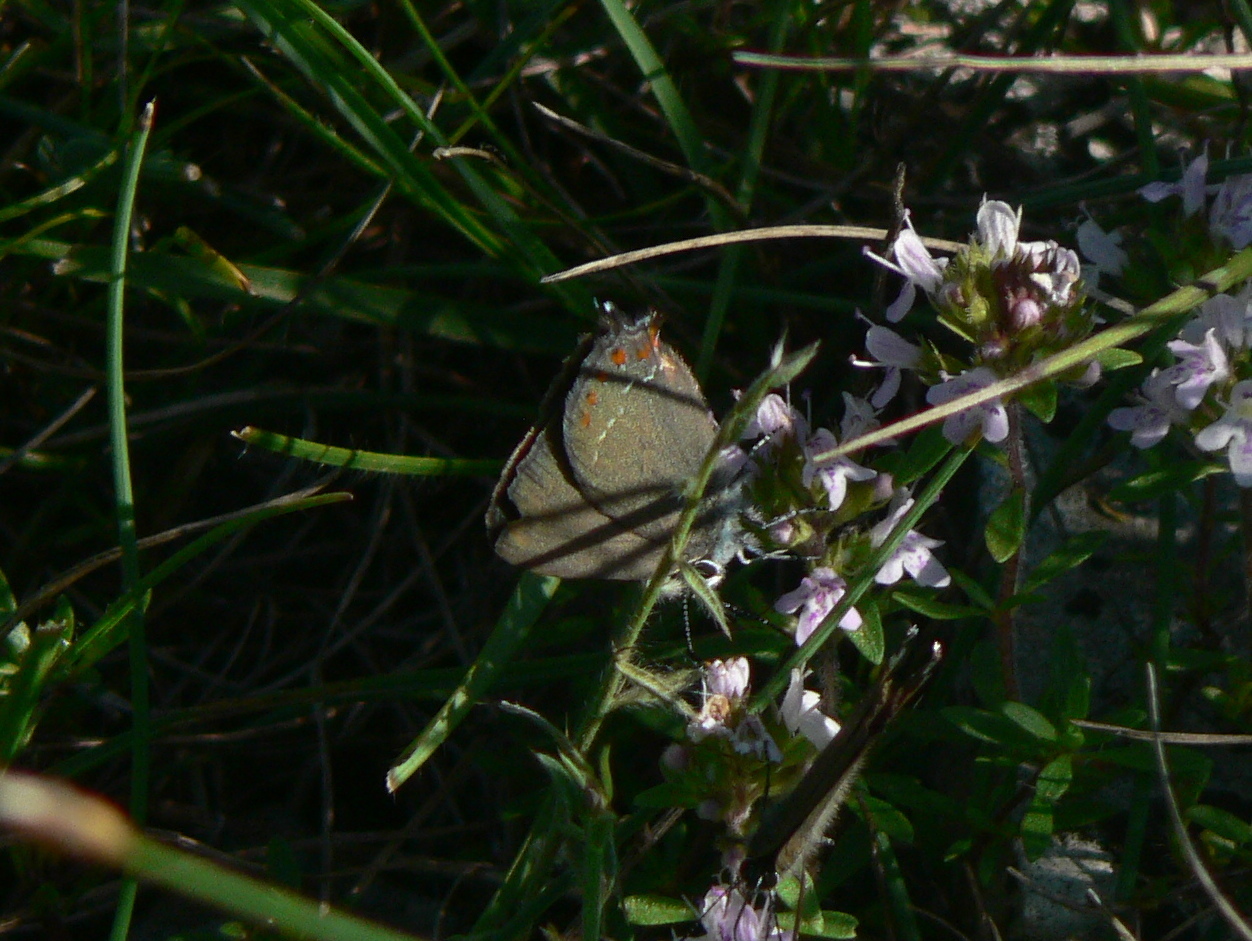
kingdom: Animalia
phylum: Arthropoda
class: Insecta
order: Lepidoptera
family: Lycaenidae
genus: Fixsenia
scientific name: Fixsenia esculi
